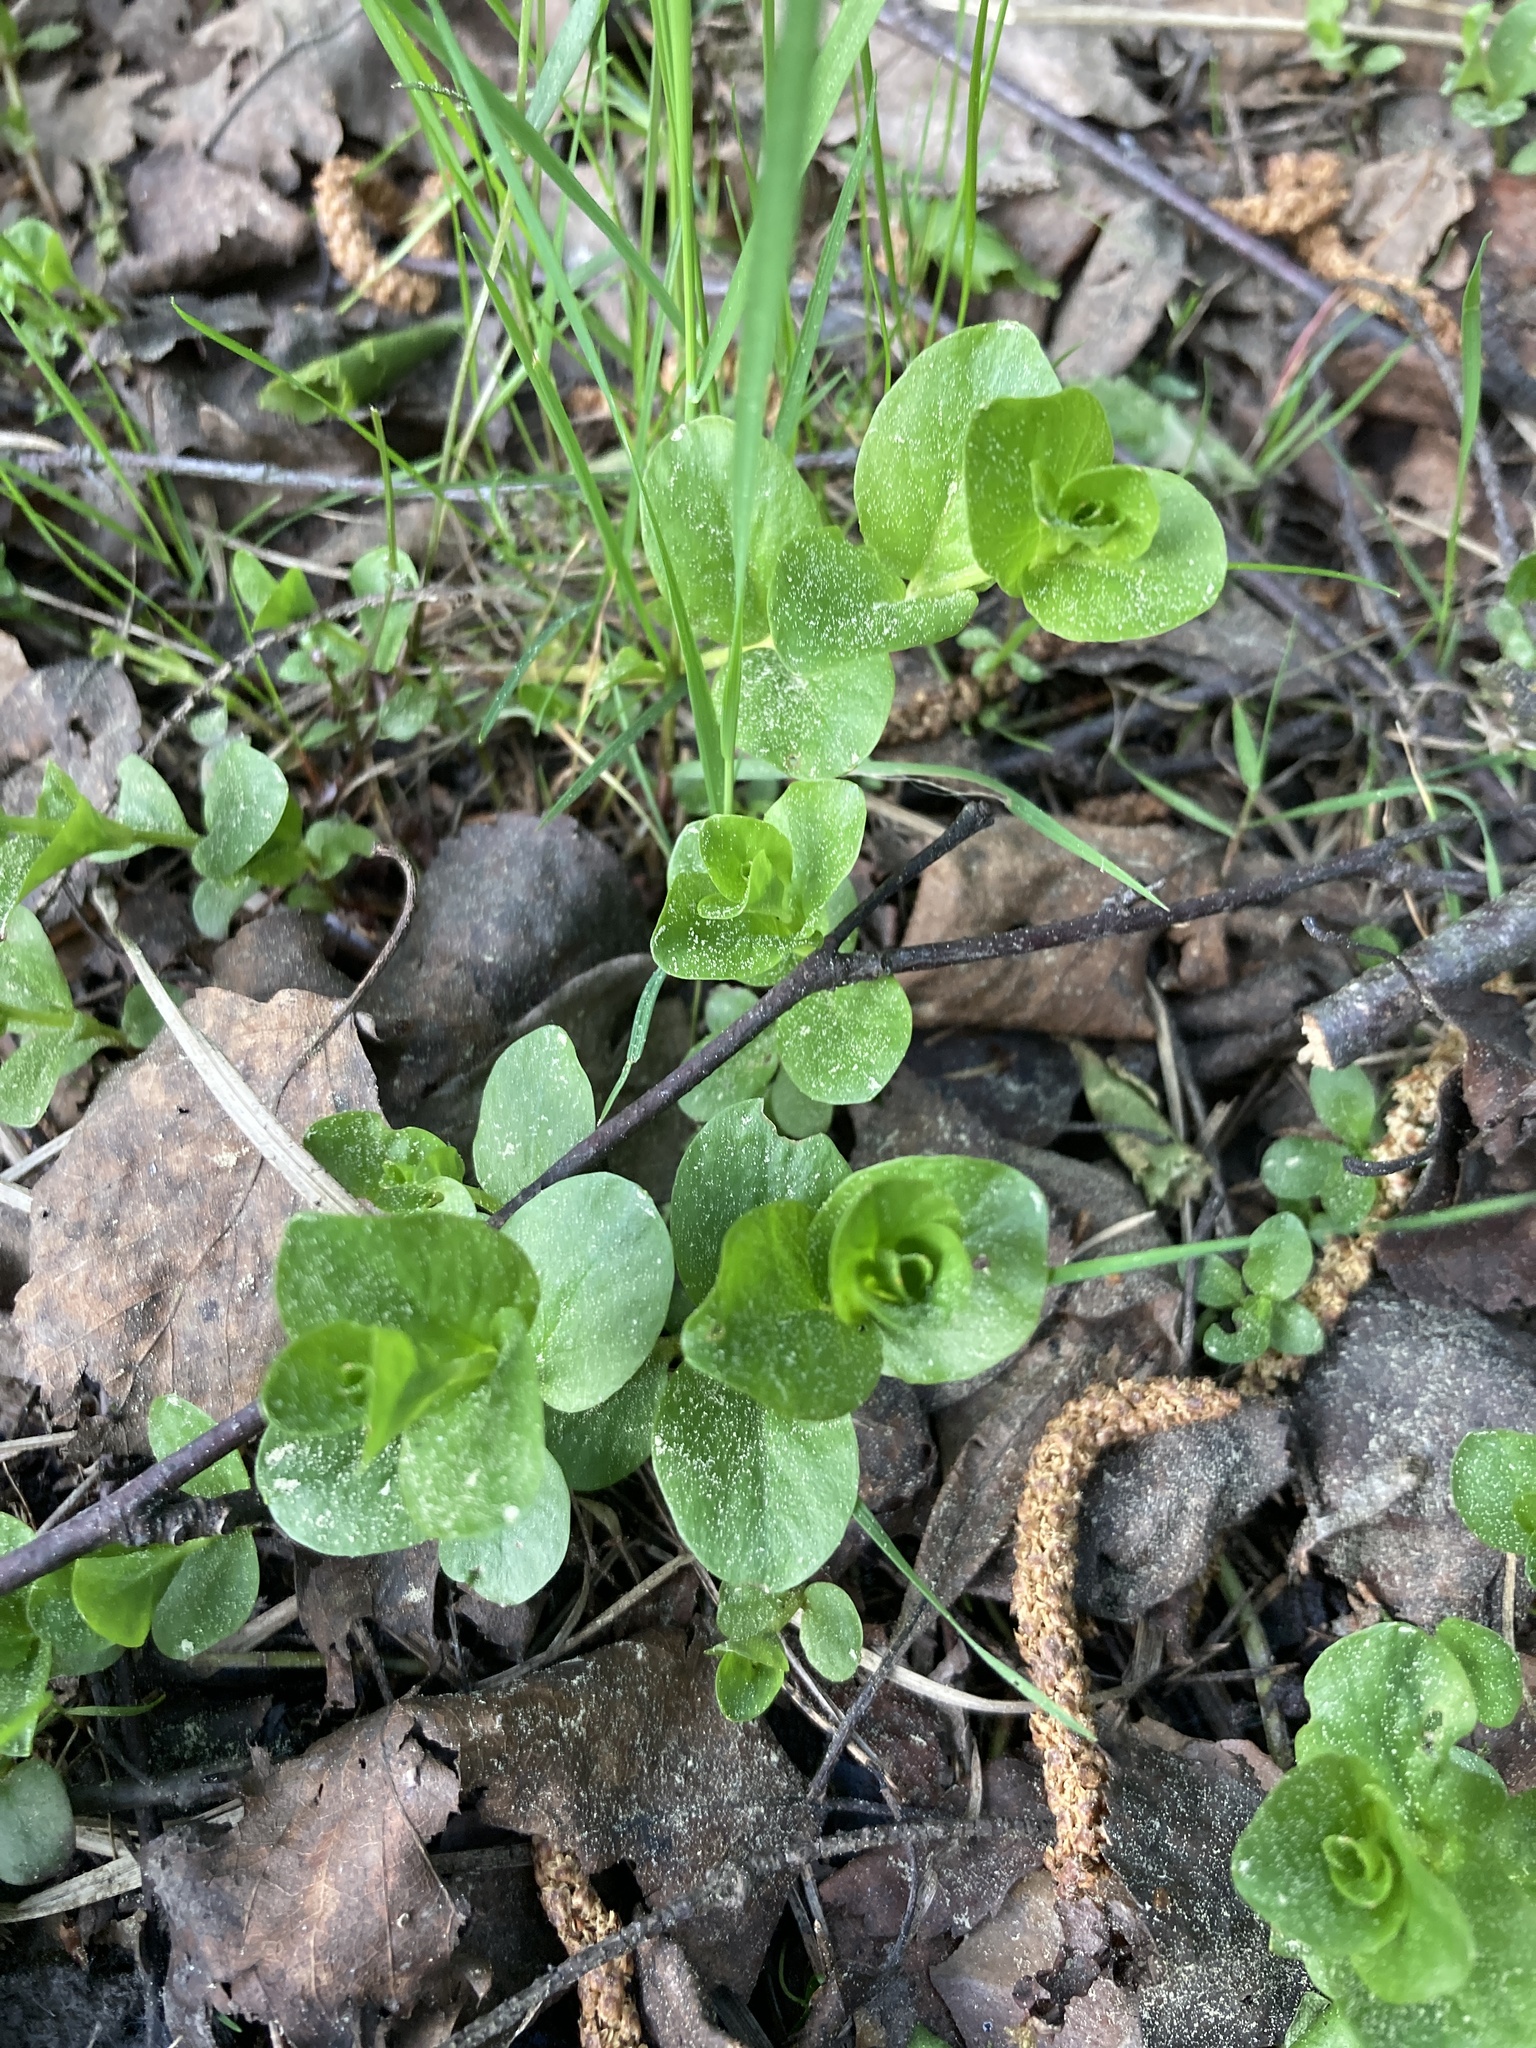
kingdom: Plantae
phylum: Tracheophyta
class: Magnoliopsida
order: Ericales
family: Primulaceae
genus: Lysimachia
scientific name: Lysimachia nummularia
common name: Moneywort
